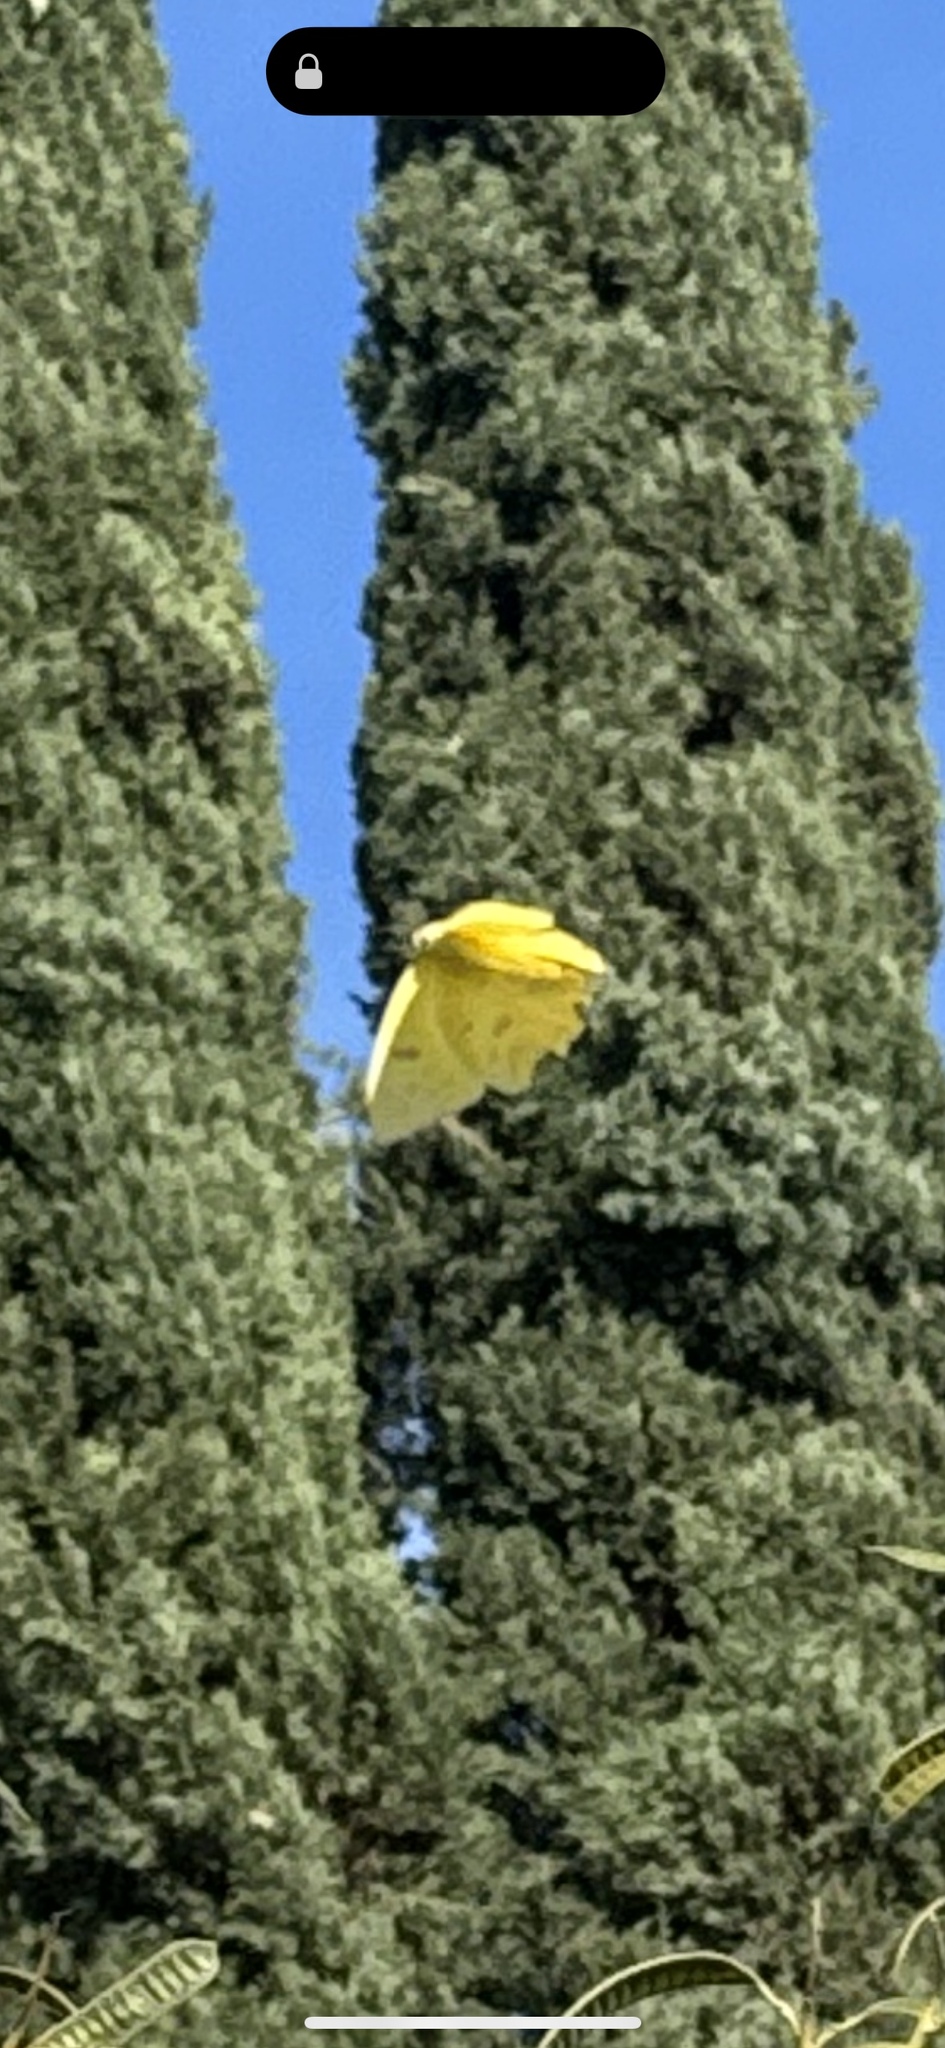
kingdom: Animalia
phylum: Arthropoda
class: Insecta
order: Lepidoptera
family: Pieridae
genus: Phoebis
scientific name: Phoebis sennae
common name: Cloudless sulphur
